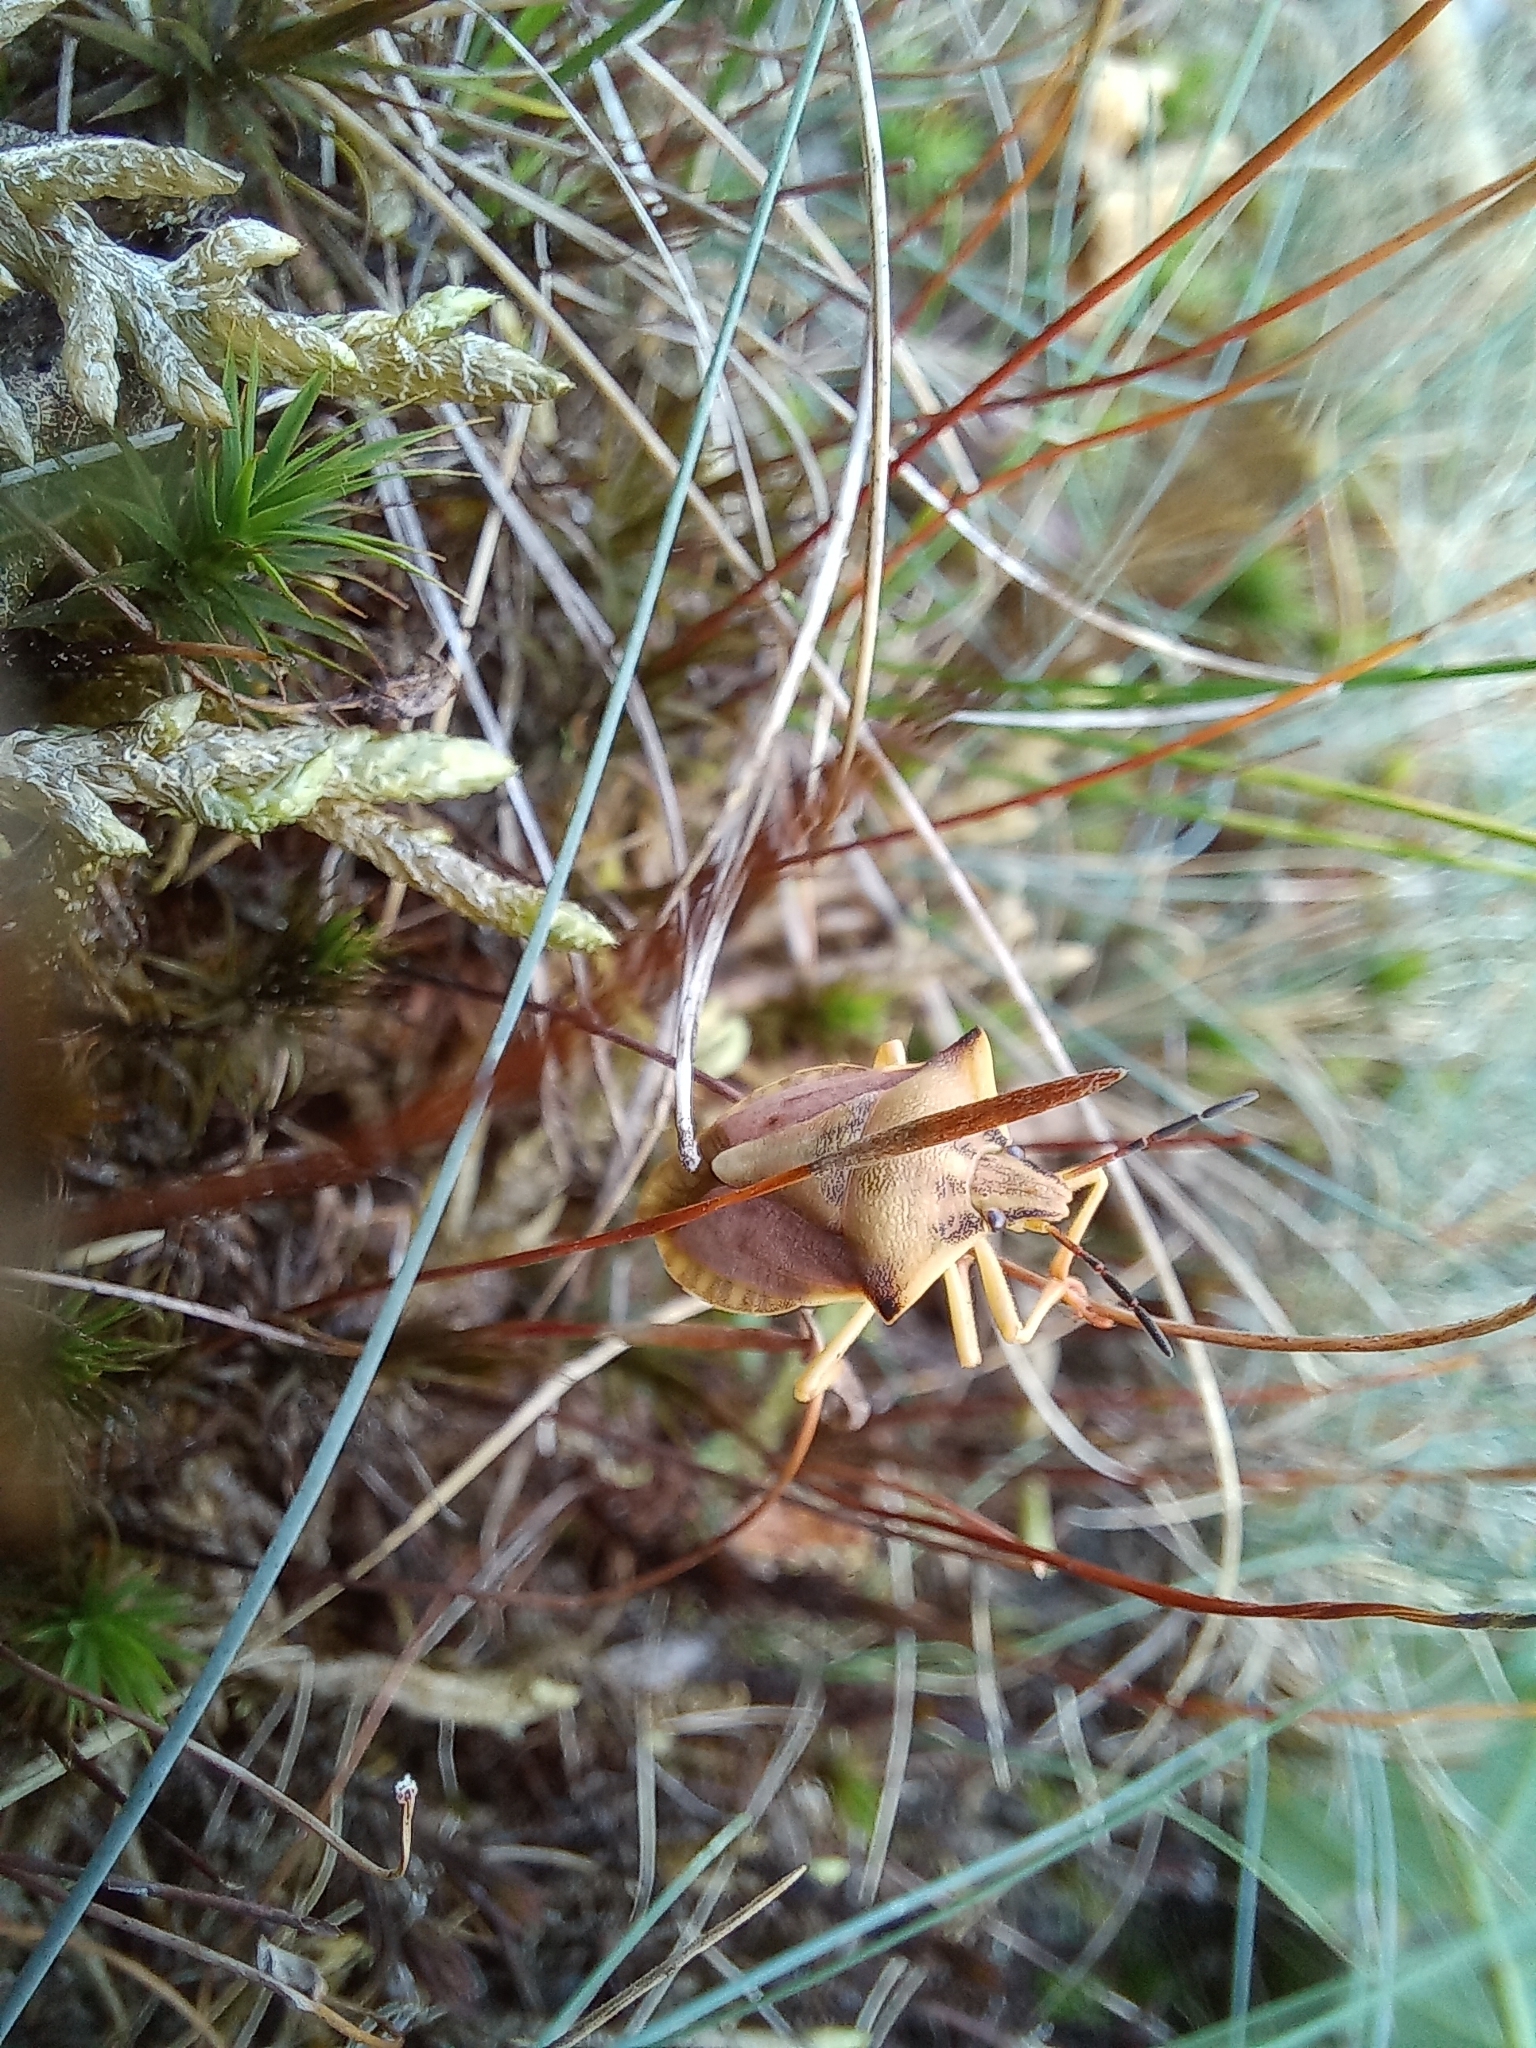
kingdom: Animalia
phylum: Arthropoda
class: Insecta
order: Hemiptera
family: Pentatomidae
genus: Carpocoris
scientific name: Carpocoris fuscispinus
